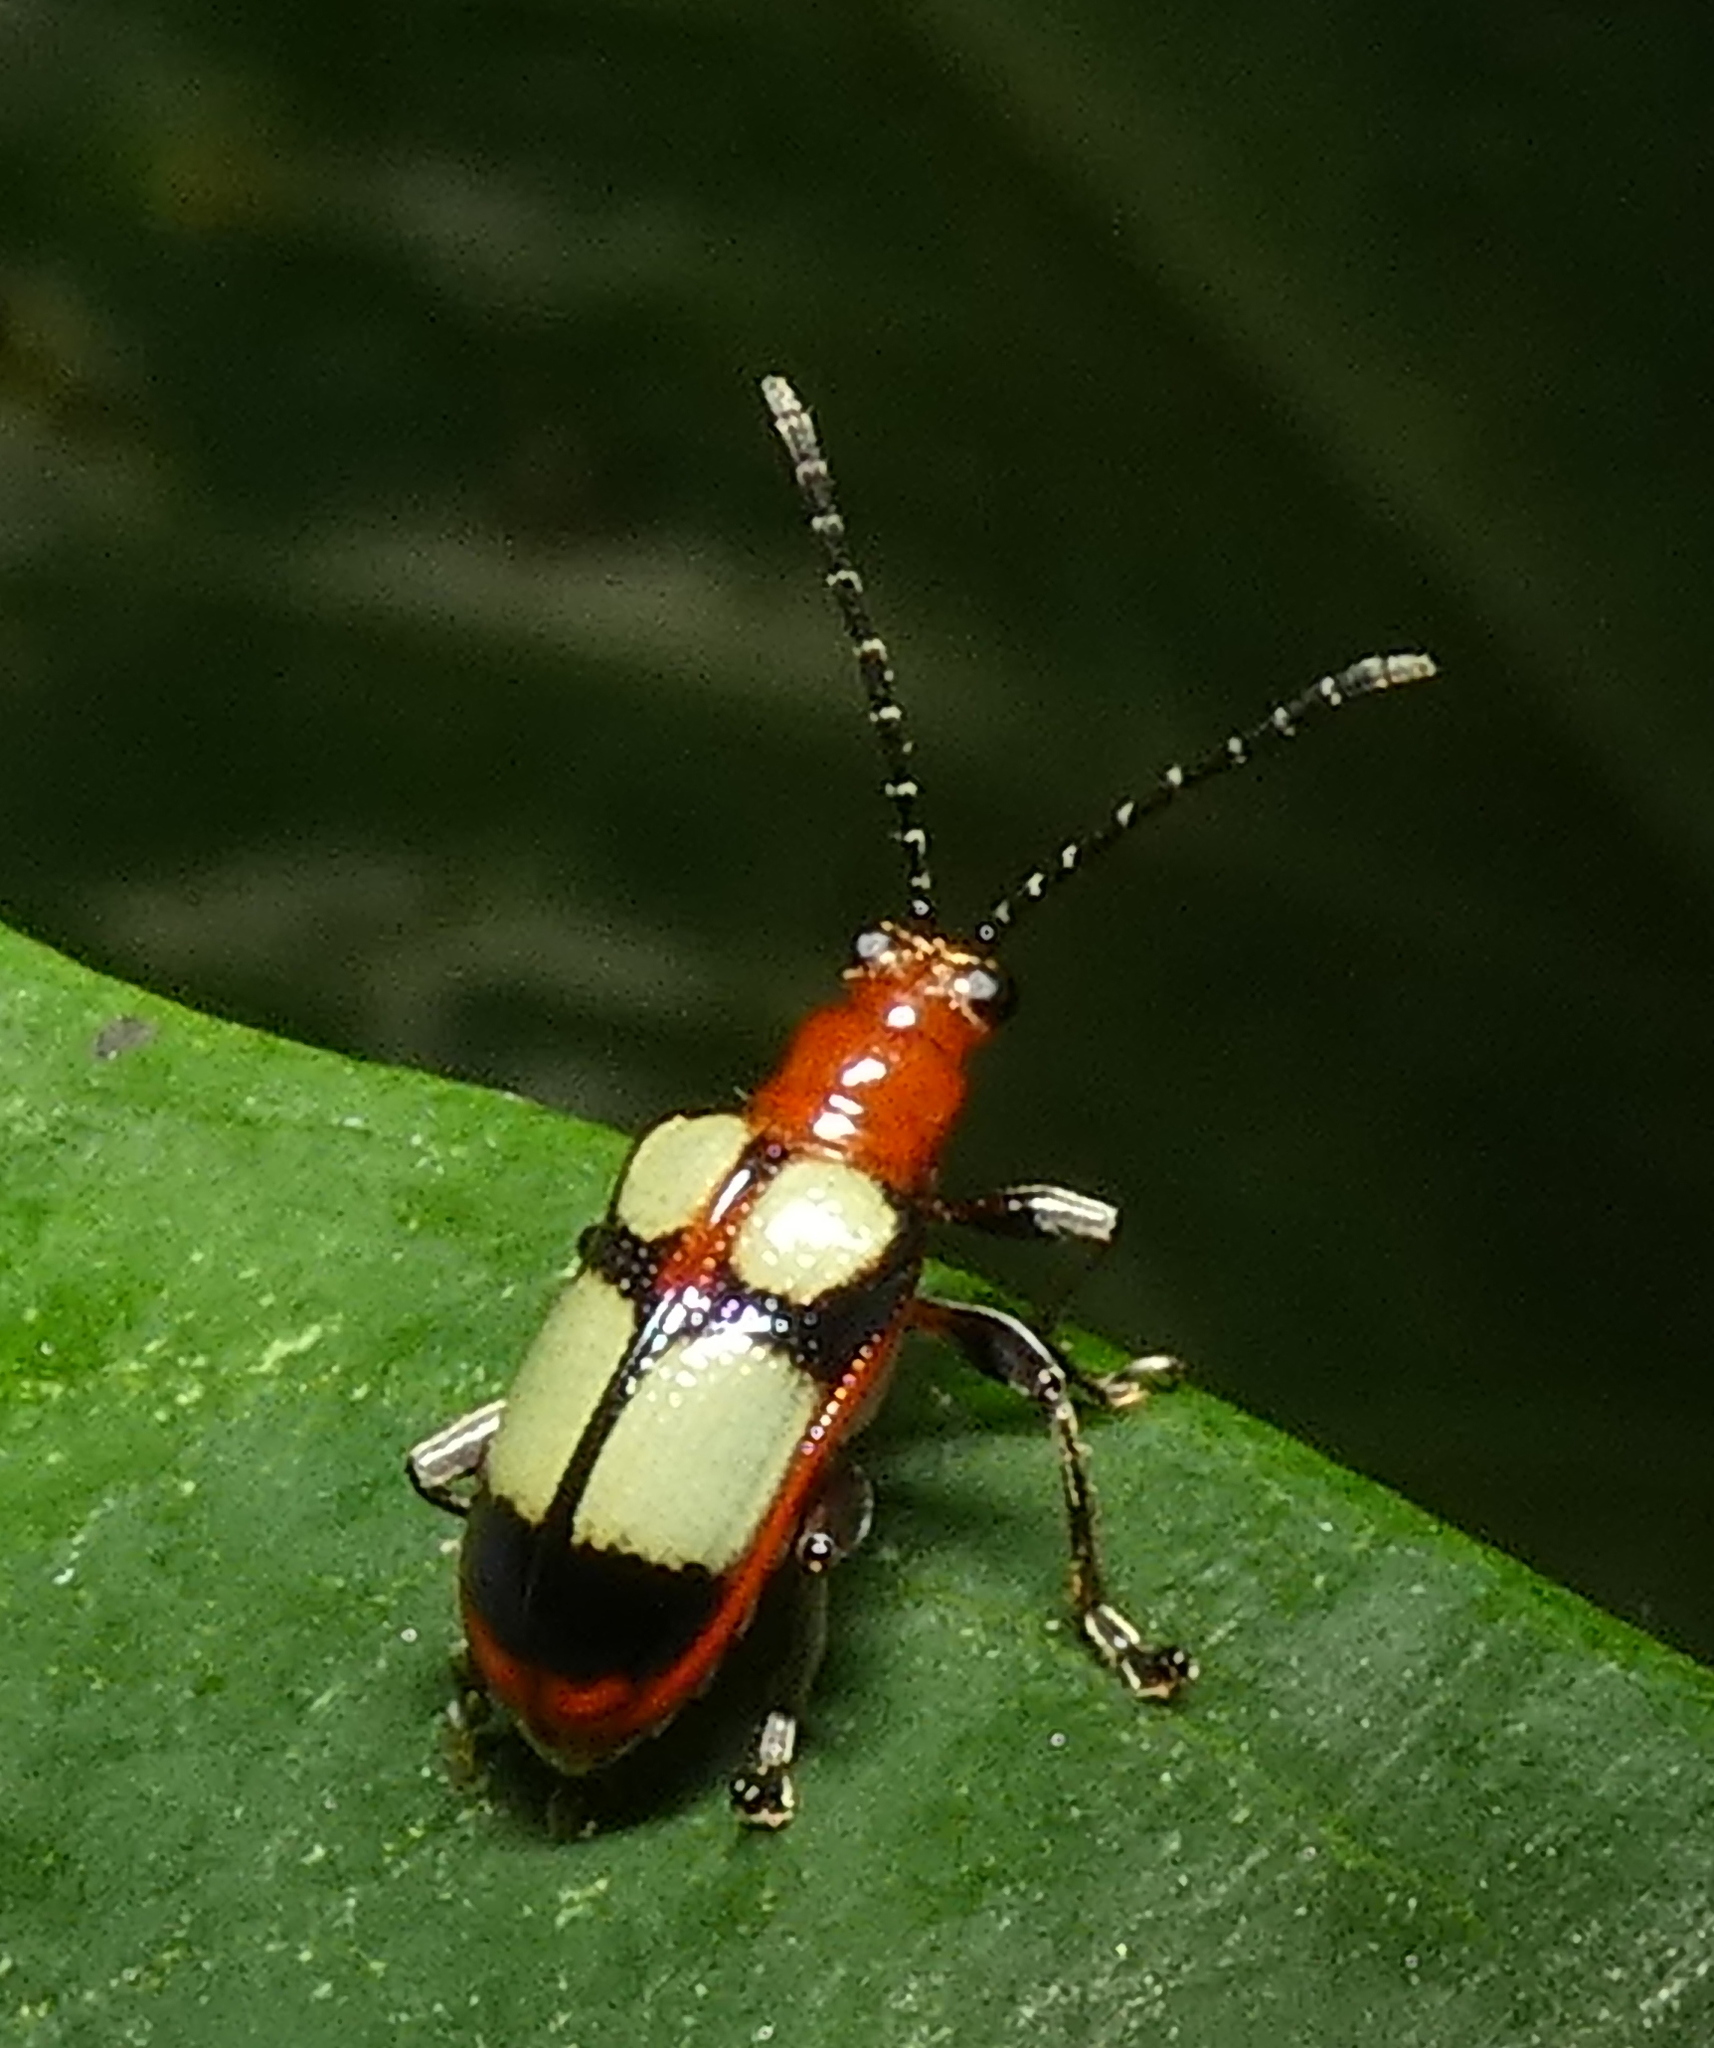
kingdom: Animalia
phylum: Arthropoda
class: Insecta
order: Coleoptera
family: Chrysomelidae
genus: Neolema
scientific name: Neolema
